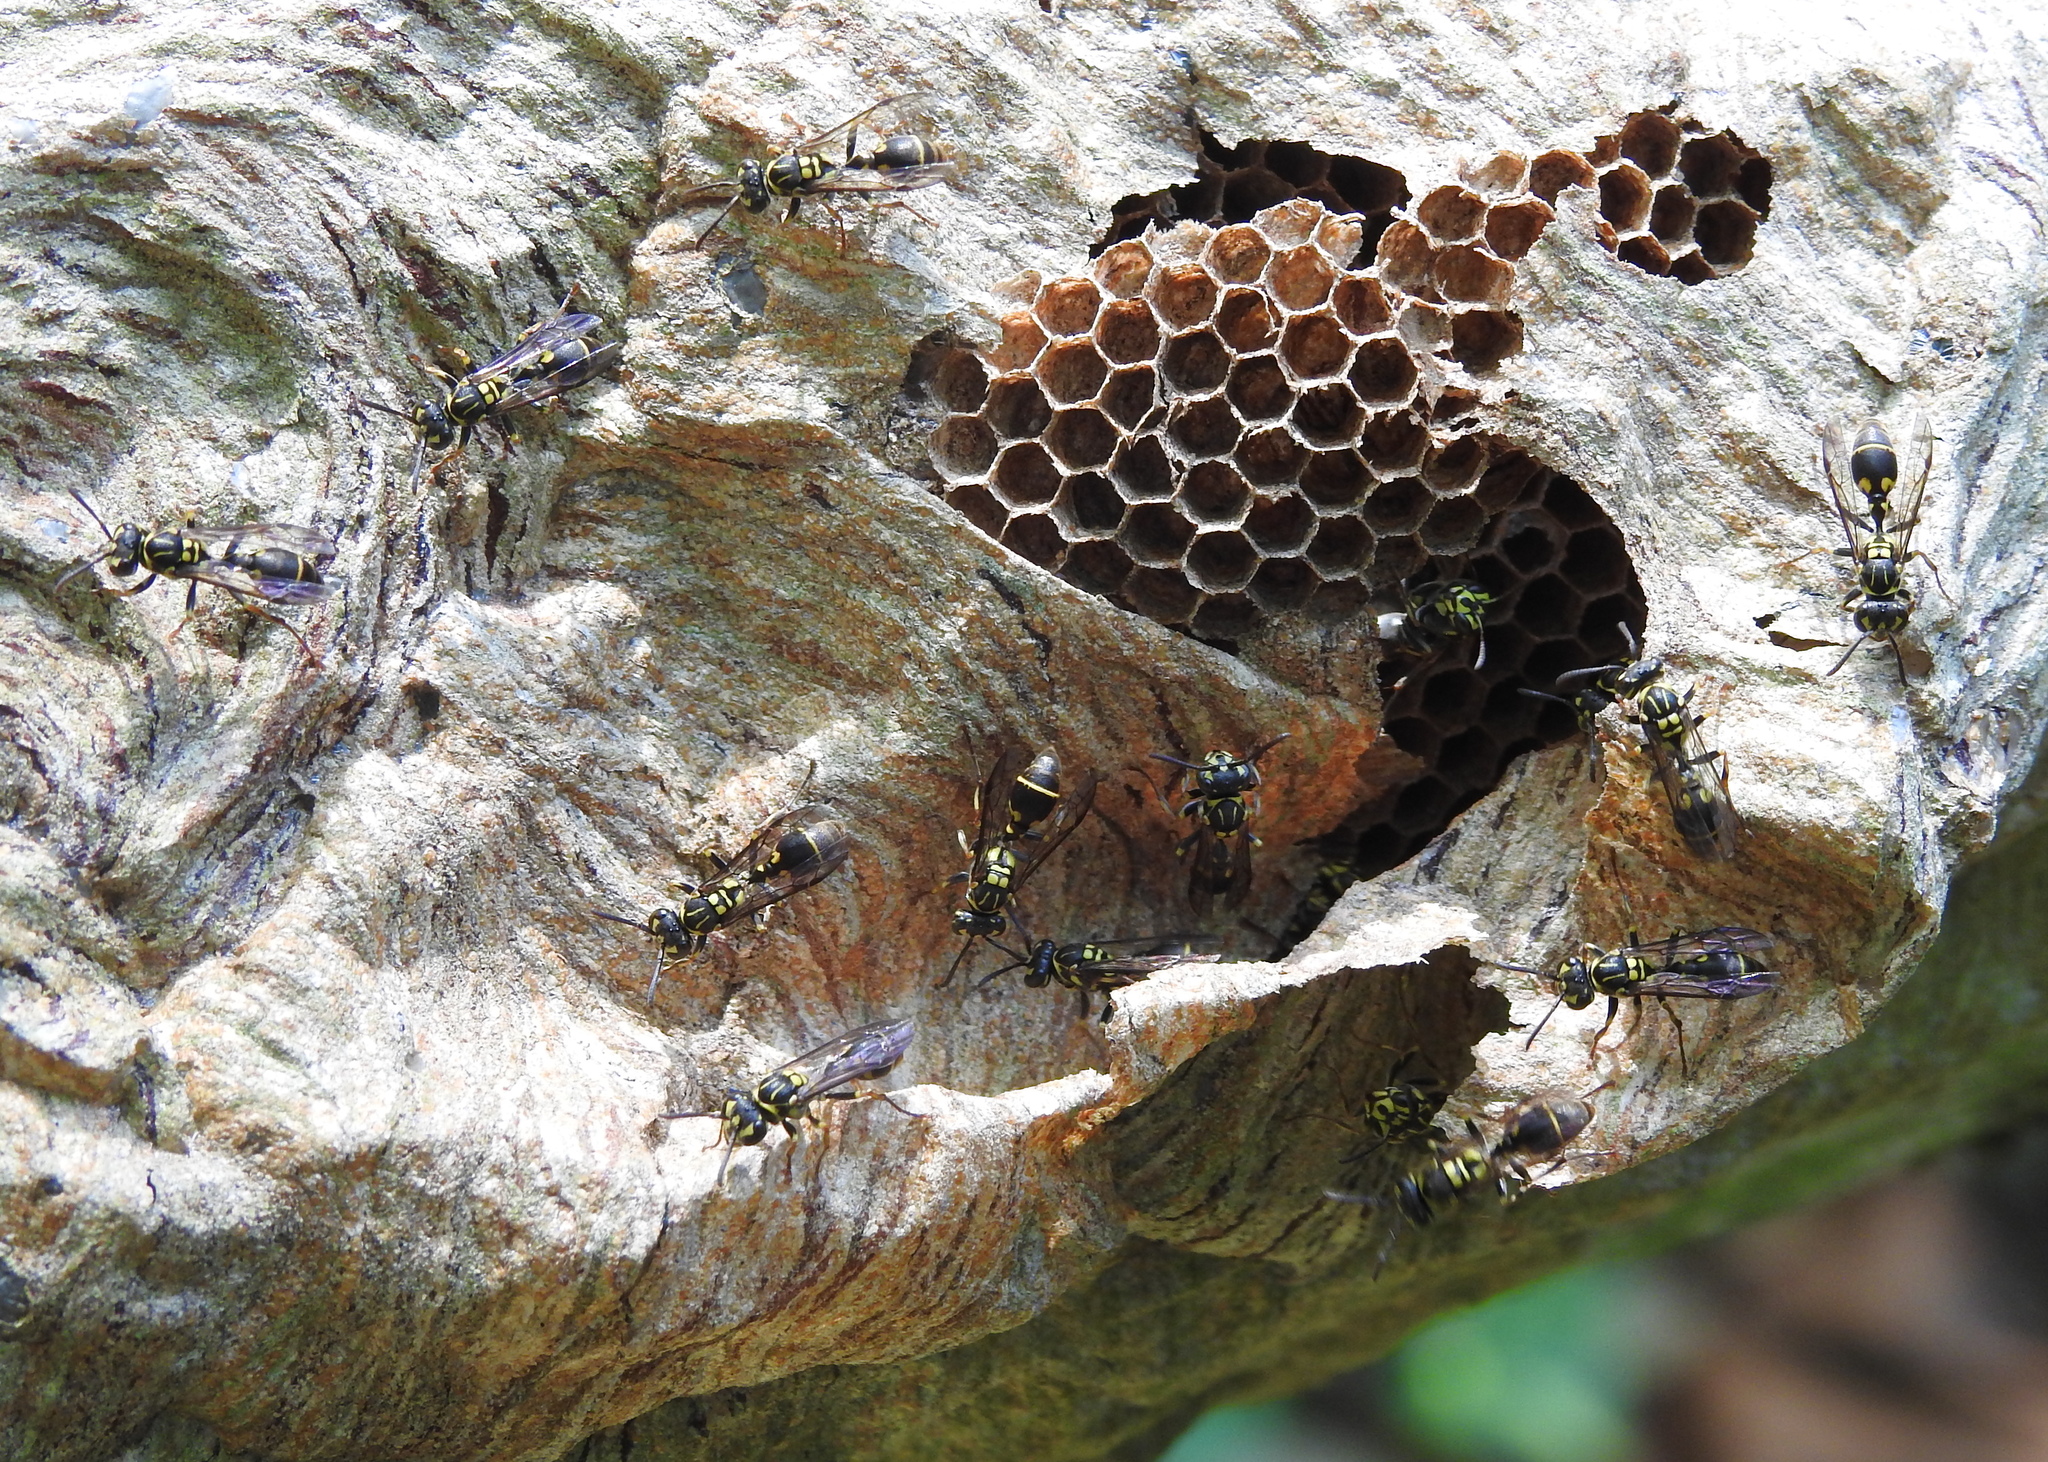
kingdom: Animalia
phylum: Arthropoda
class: Insecta
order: Hymenoptera
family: Vespidae
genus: Ropalidia
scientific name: Ropalidia flavopicta
